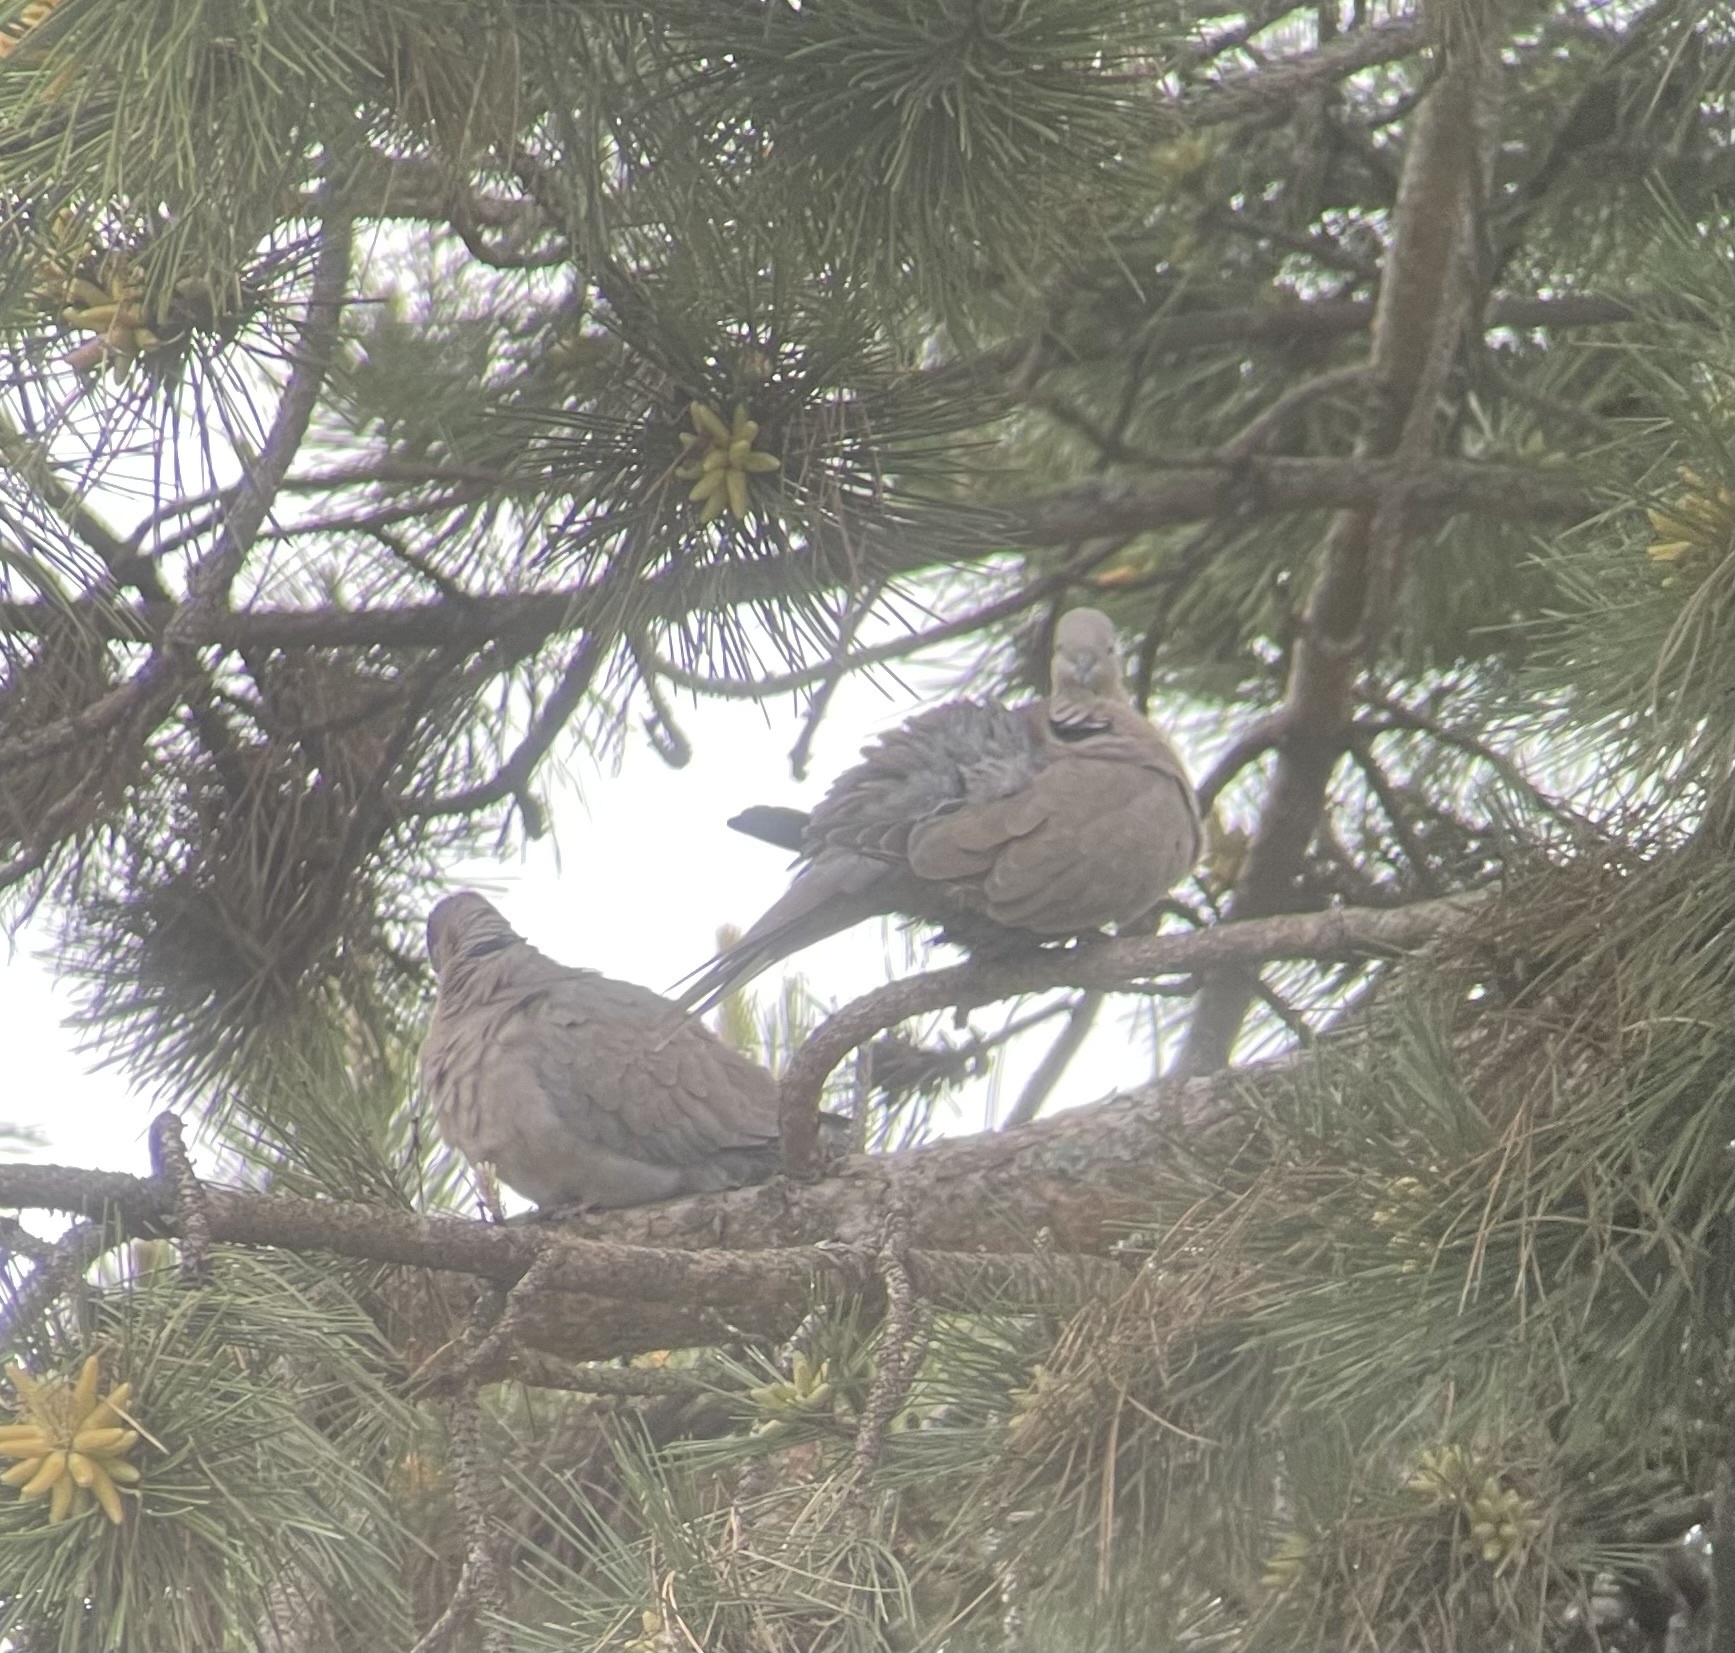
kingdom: Animalia
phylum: Chordata
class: Aves
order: Columbiformes
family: Columbidae
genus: Streptopelia
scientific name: Streptopelia decaocto
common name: Eurasian collared dove
